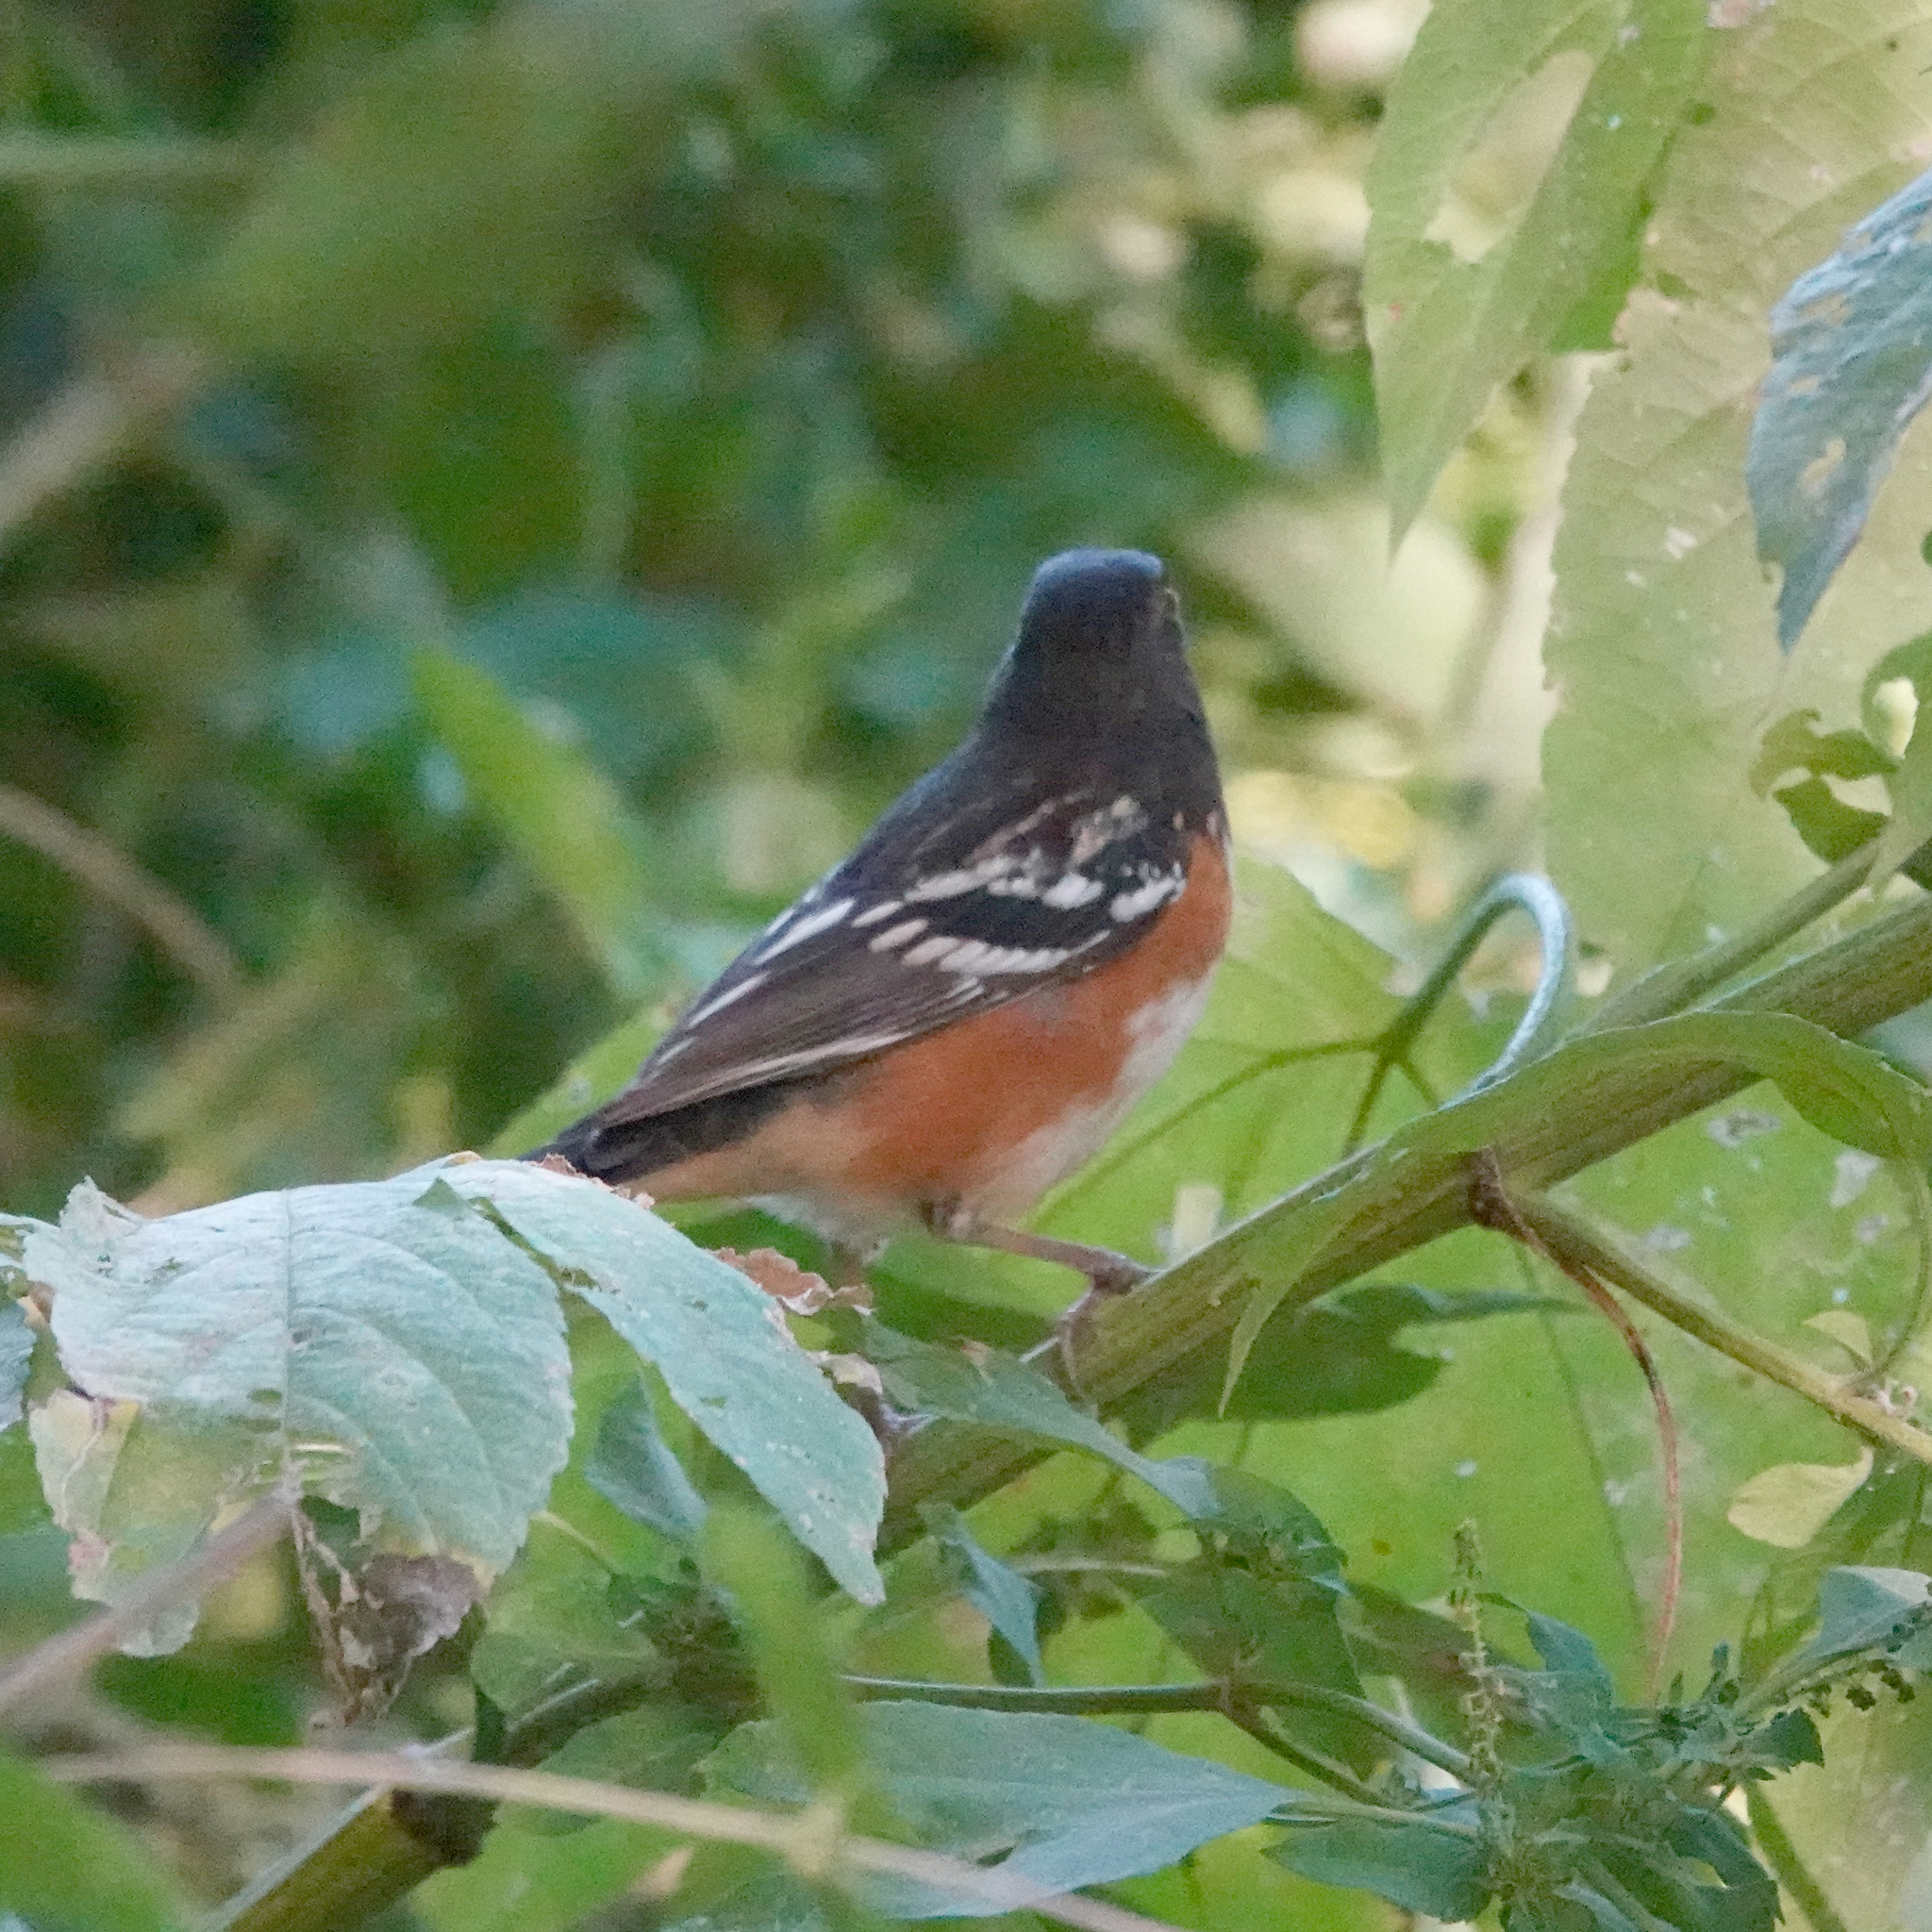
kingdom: Animalia
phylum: Chordata
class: Aves
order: Passeriformes
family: Passerellidae
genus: Pipilo
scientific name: Pipilo maculatus
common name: Spotted towhee
